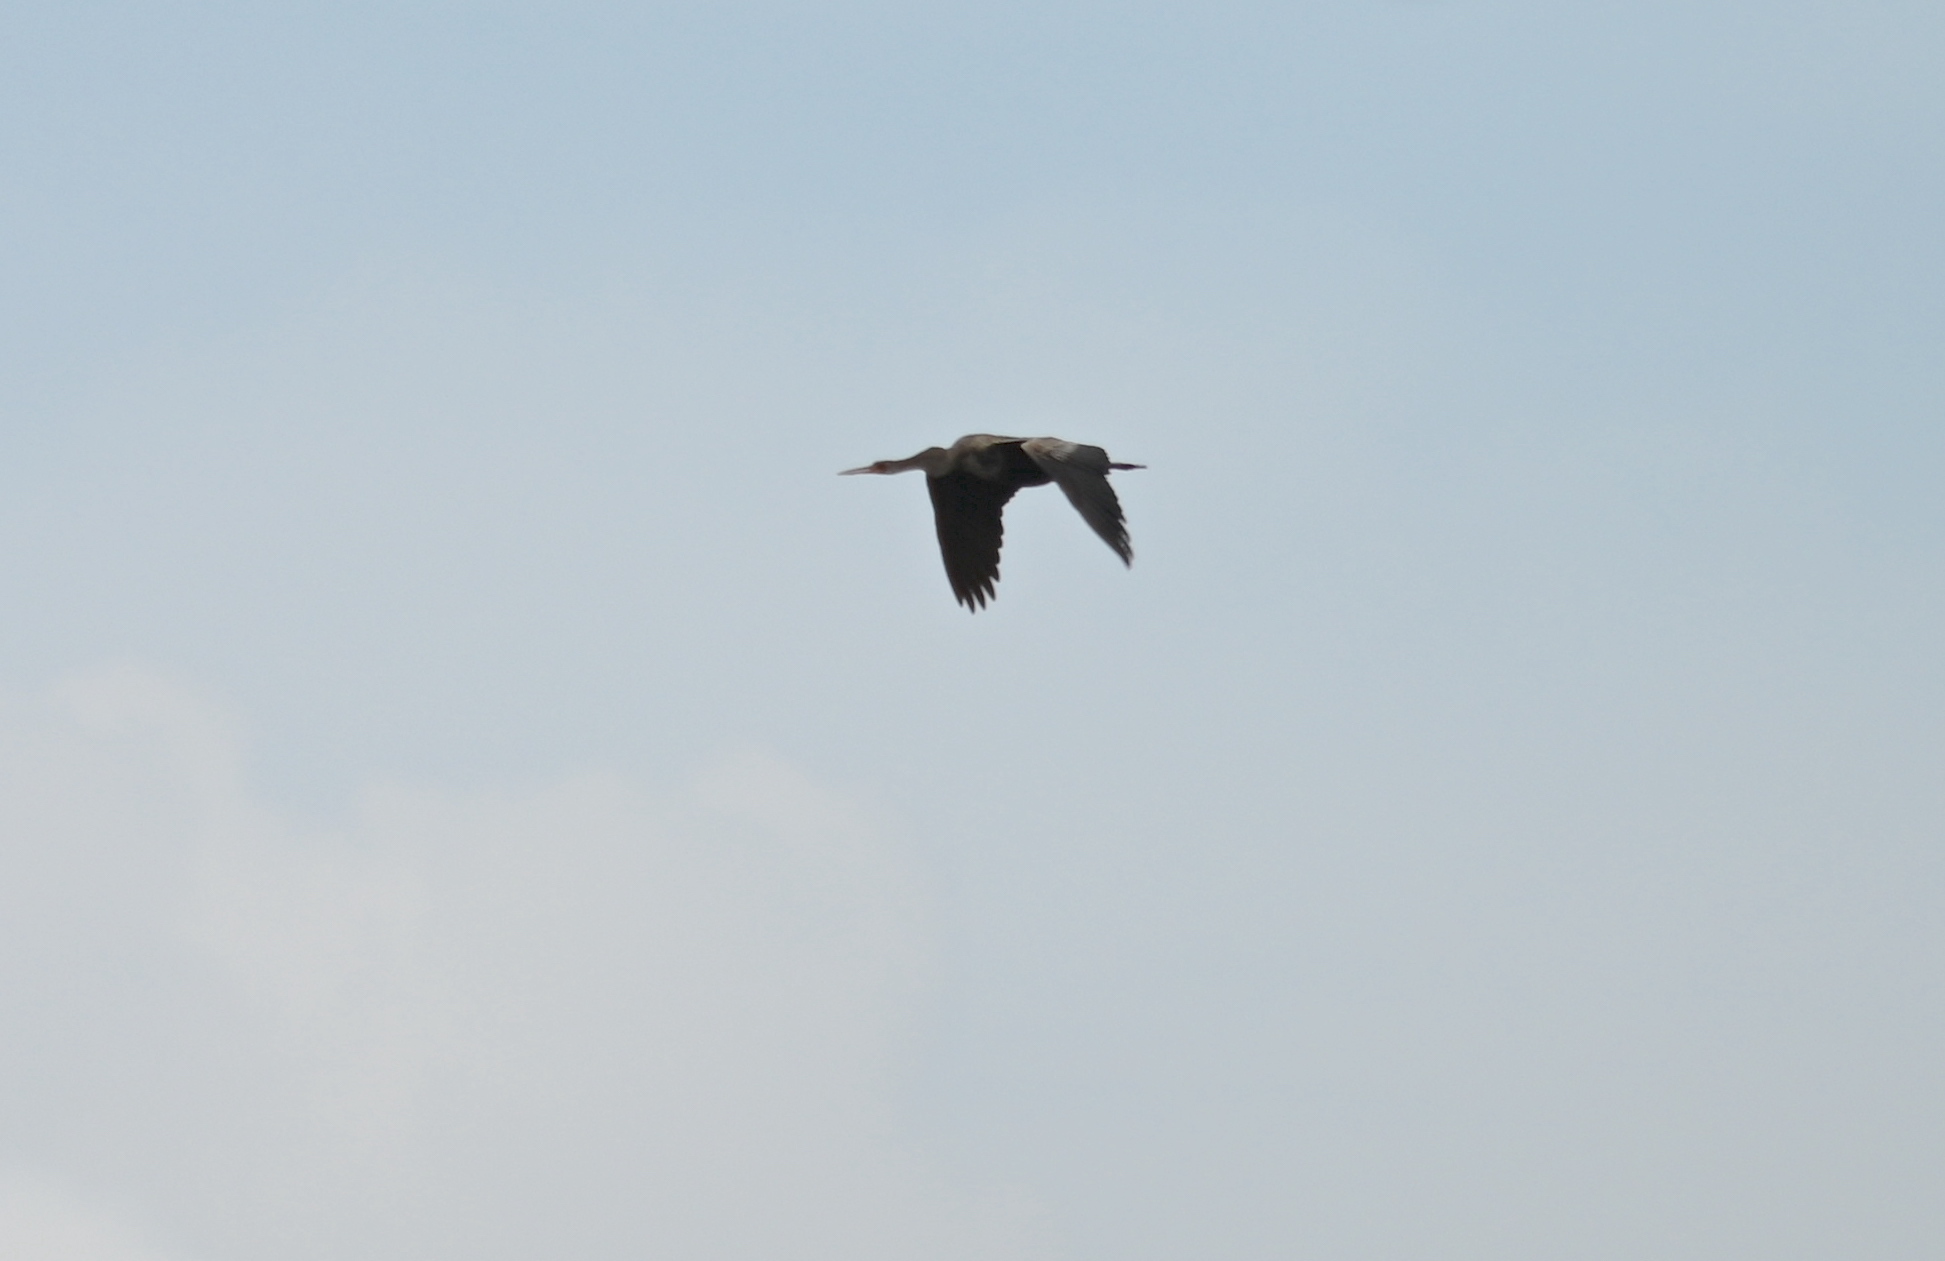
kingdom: Animalia
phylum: Chordata
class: Aves
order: Suliformes
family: Anhingidae
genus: Anhinga
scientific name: Anhinga anhinga
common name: Anhinga
